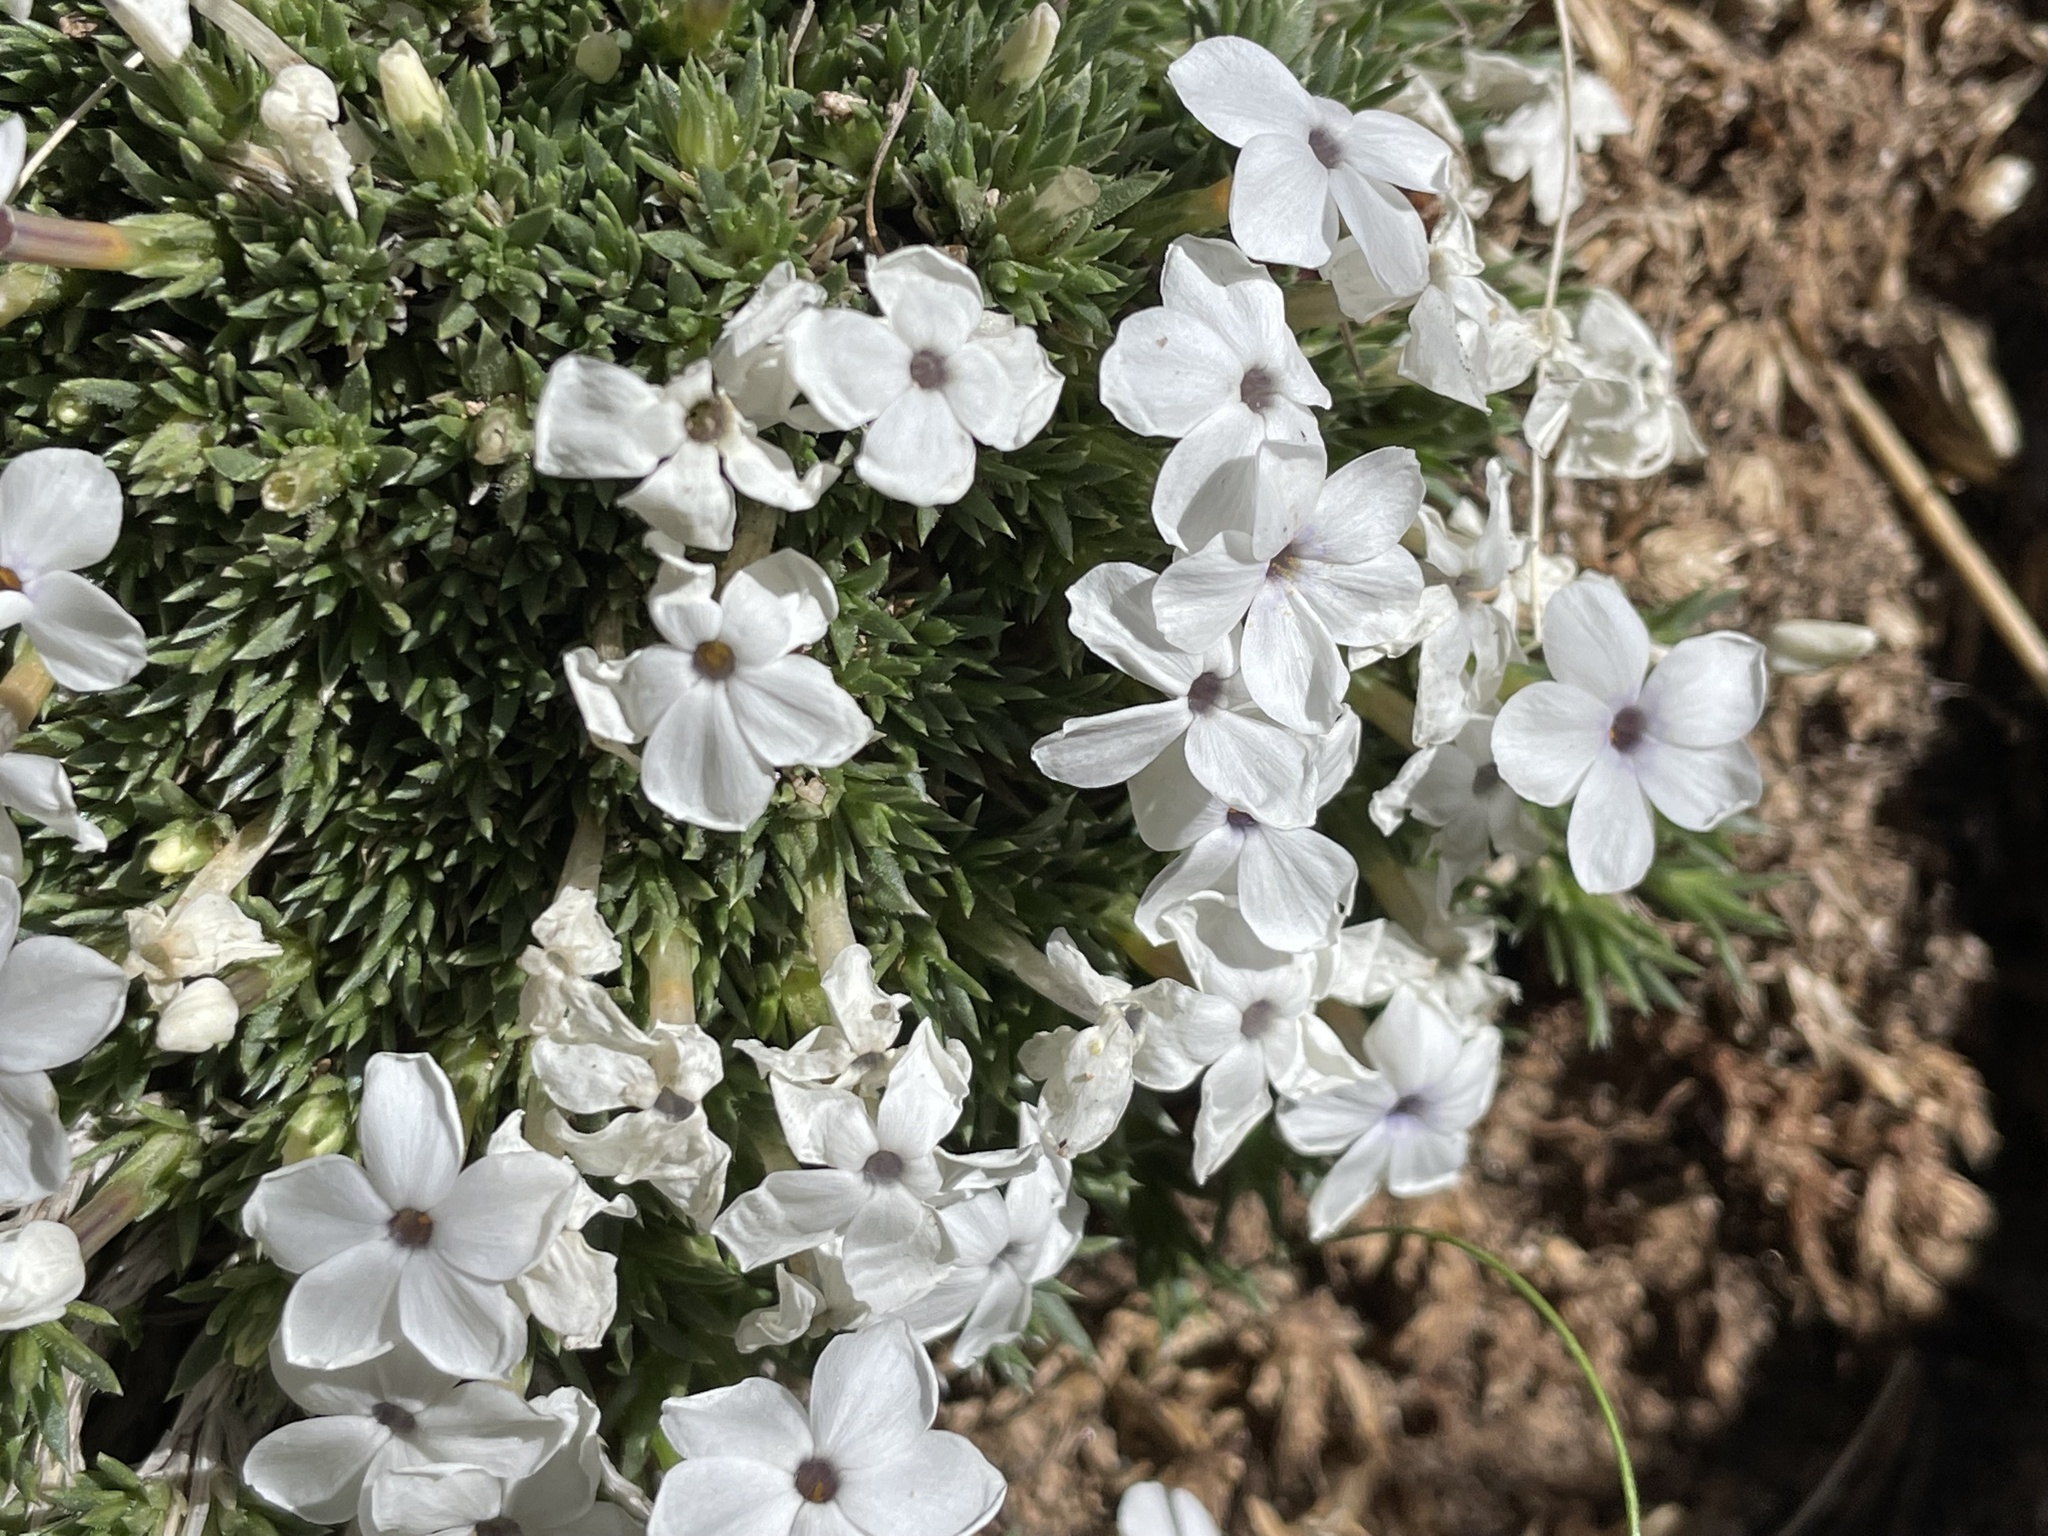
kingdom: Plantae
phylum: Tracheophyta
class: Magnoliopsida
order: Ericales
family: Polemoniaceae
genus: Phlox
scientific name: Phlox condensata
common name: Compact phlox
